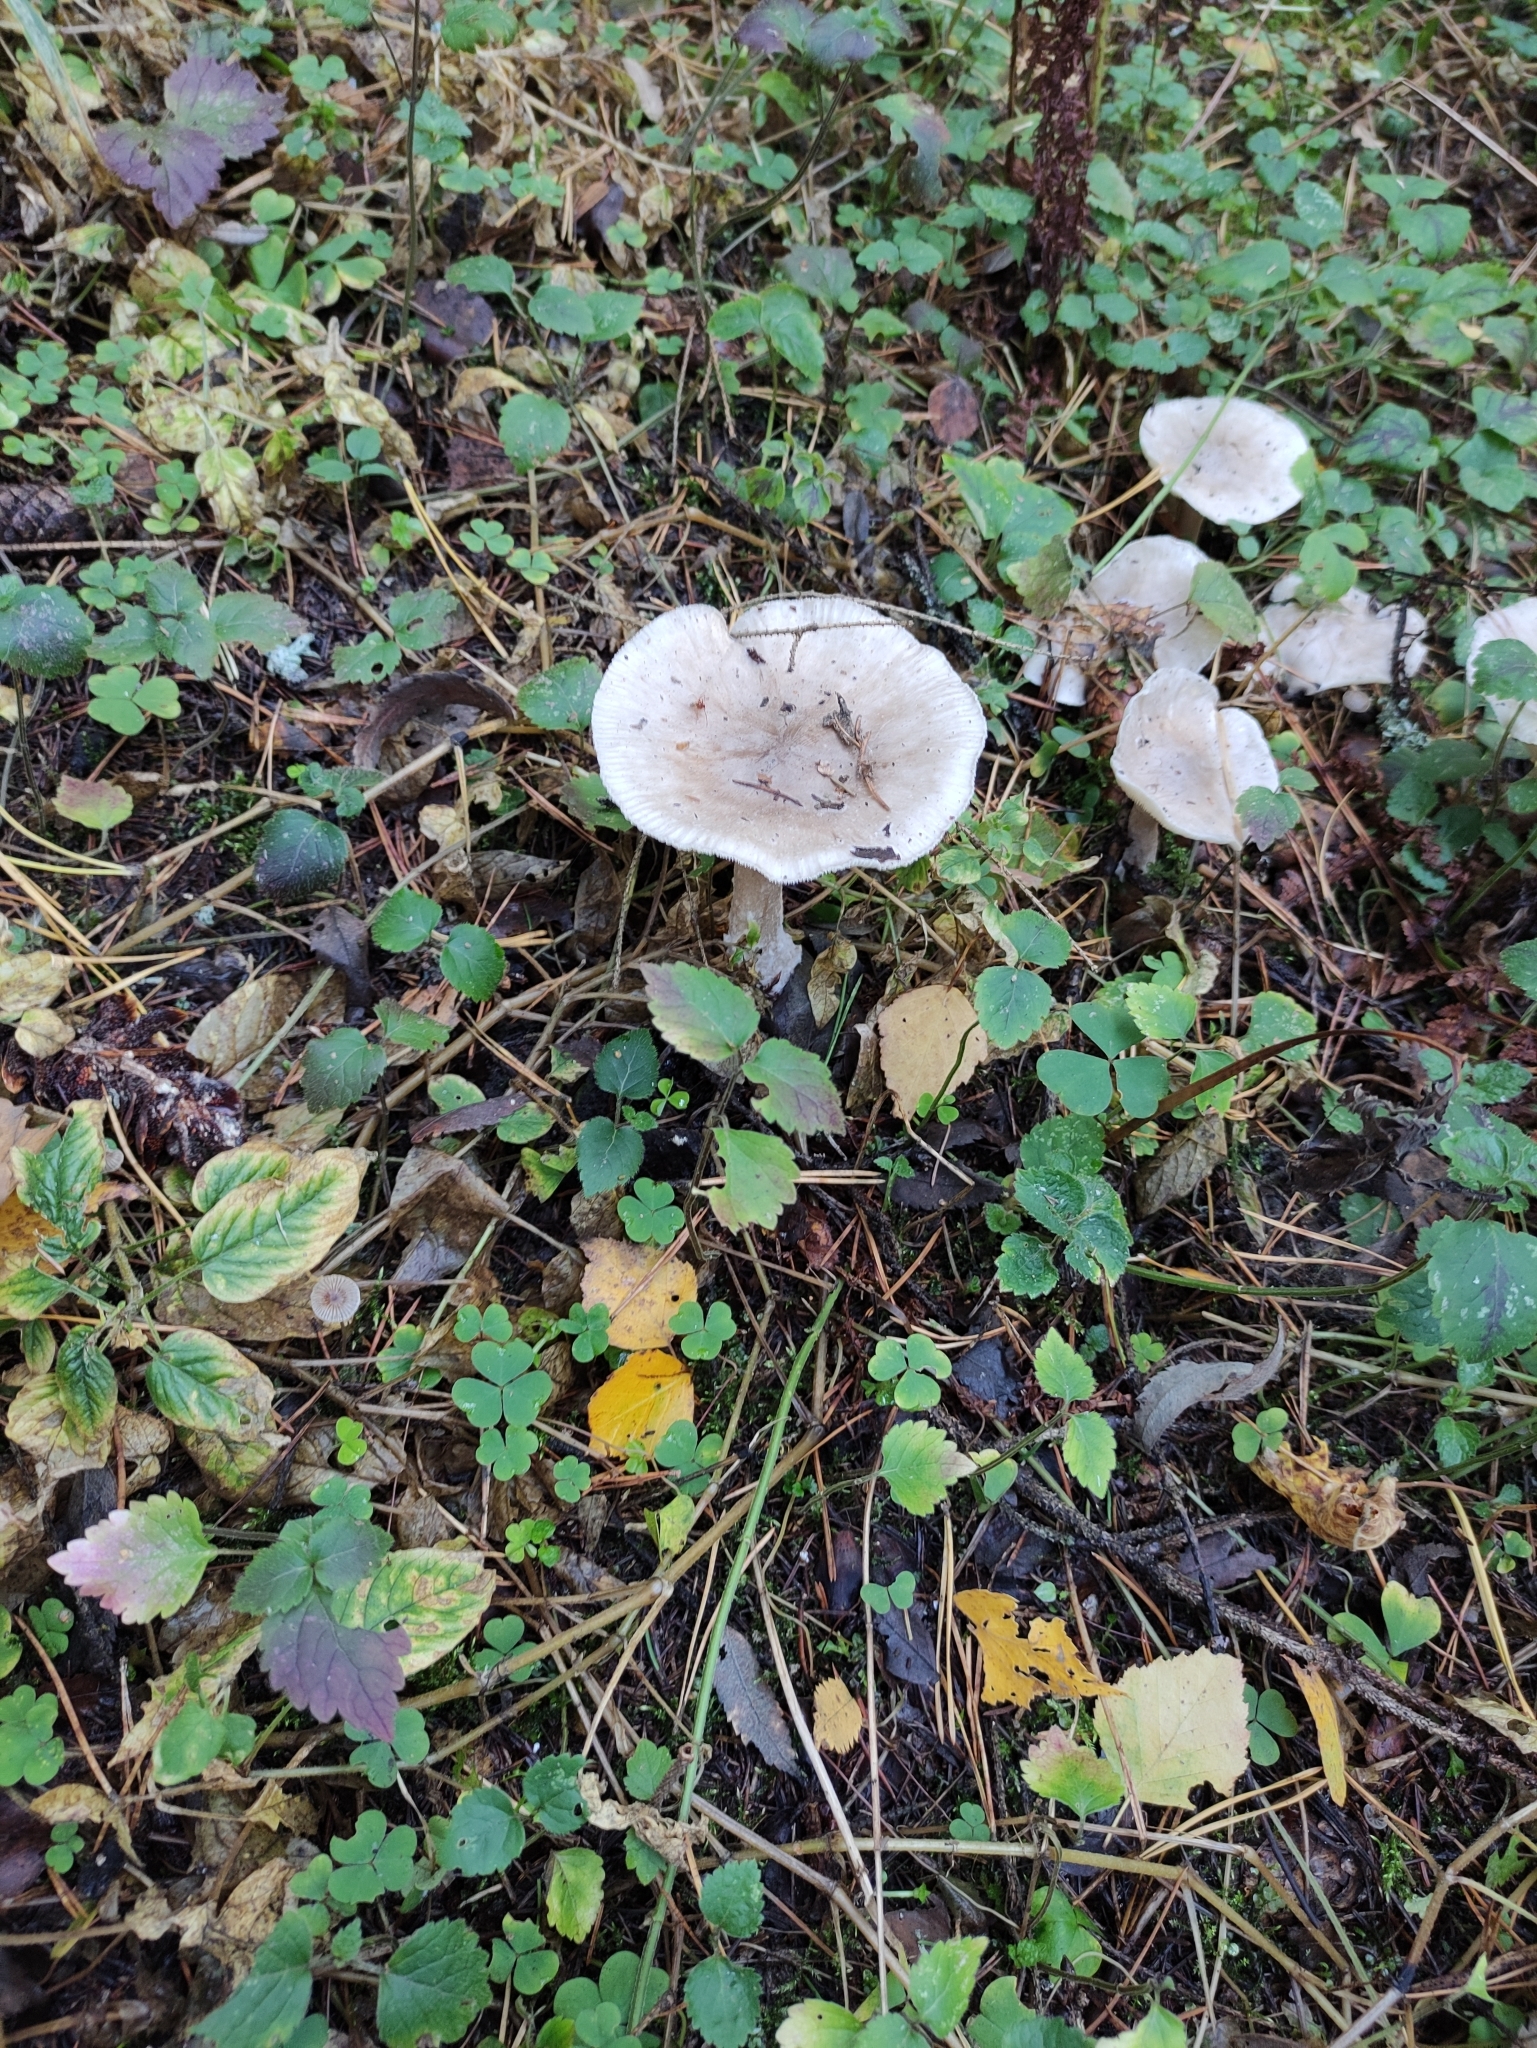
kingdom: Fungi
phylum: Basidiomycota
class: Agaricomycetes
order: Agaricales
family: Tricholomataceae
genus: Clitocybe
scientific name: Clitocybe nebularis
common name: Clouded agaric
